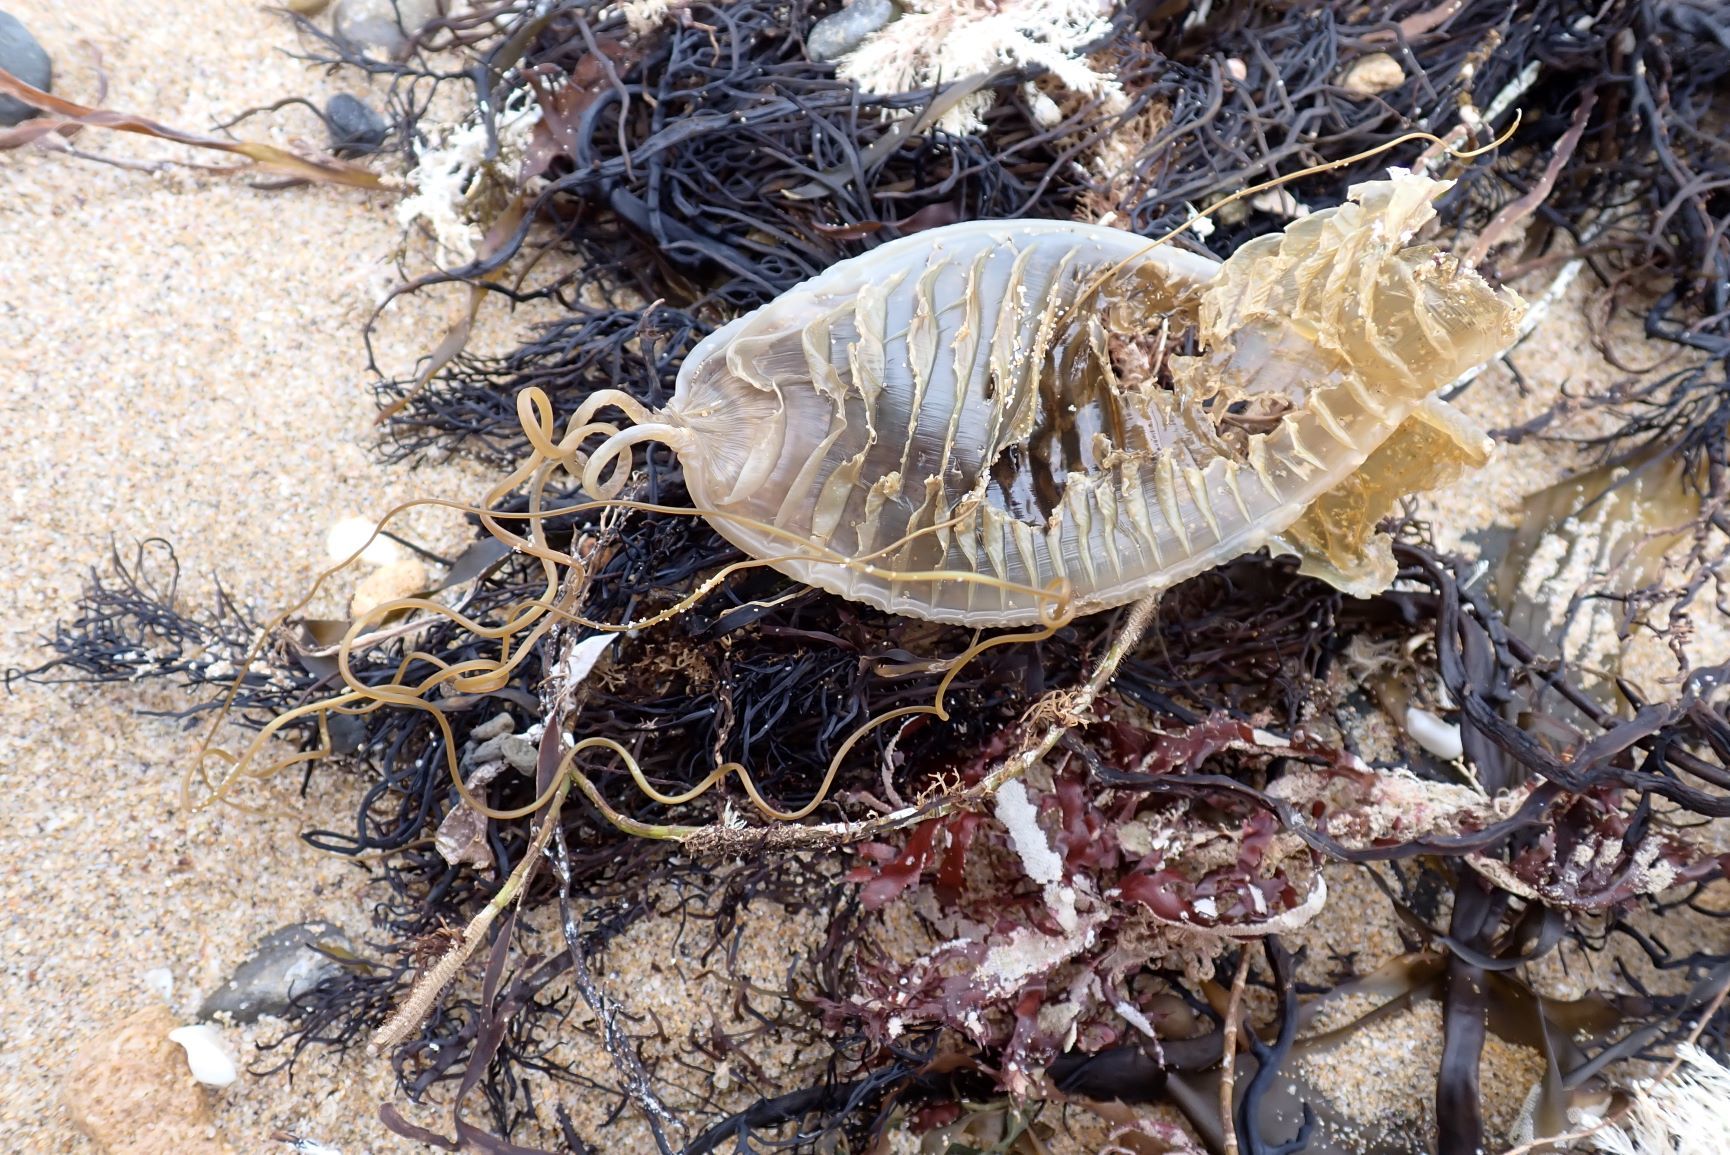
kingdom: Animalia
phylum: Chordata
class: Elasmobranchii
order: Carcharhiniformes
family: Scyliorhinidae
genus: Cephaloscyllium
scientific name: Cephaloscyllium laticeps
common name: Australian swellshark
